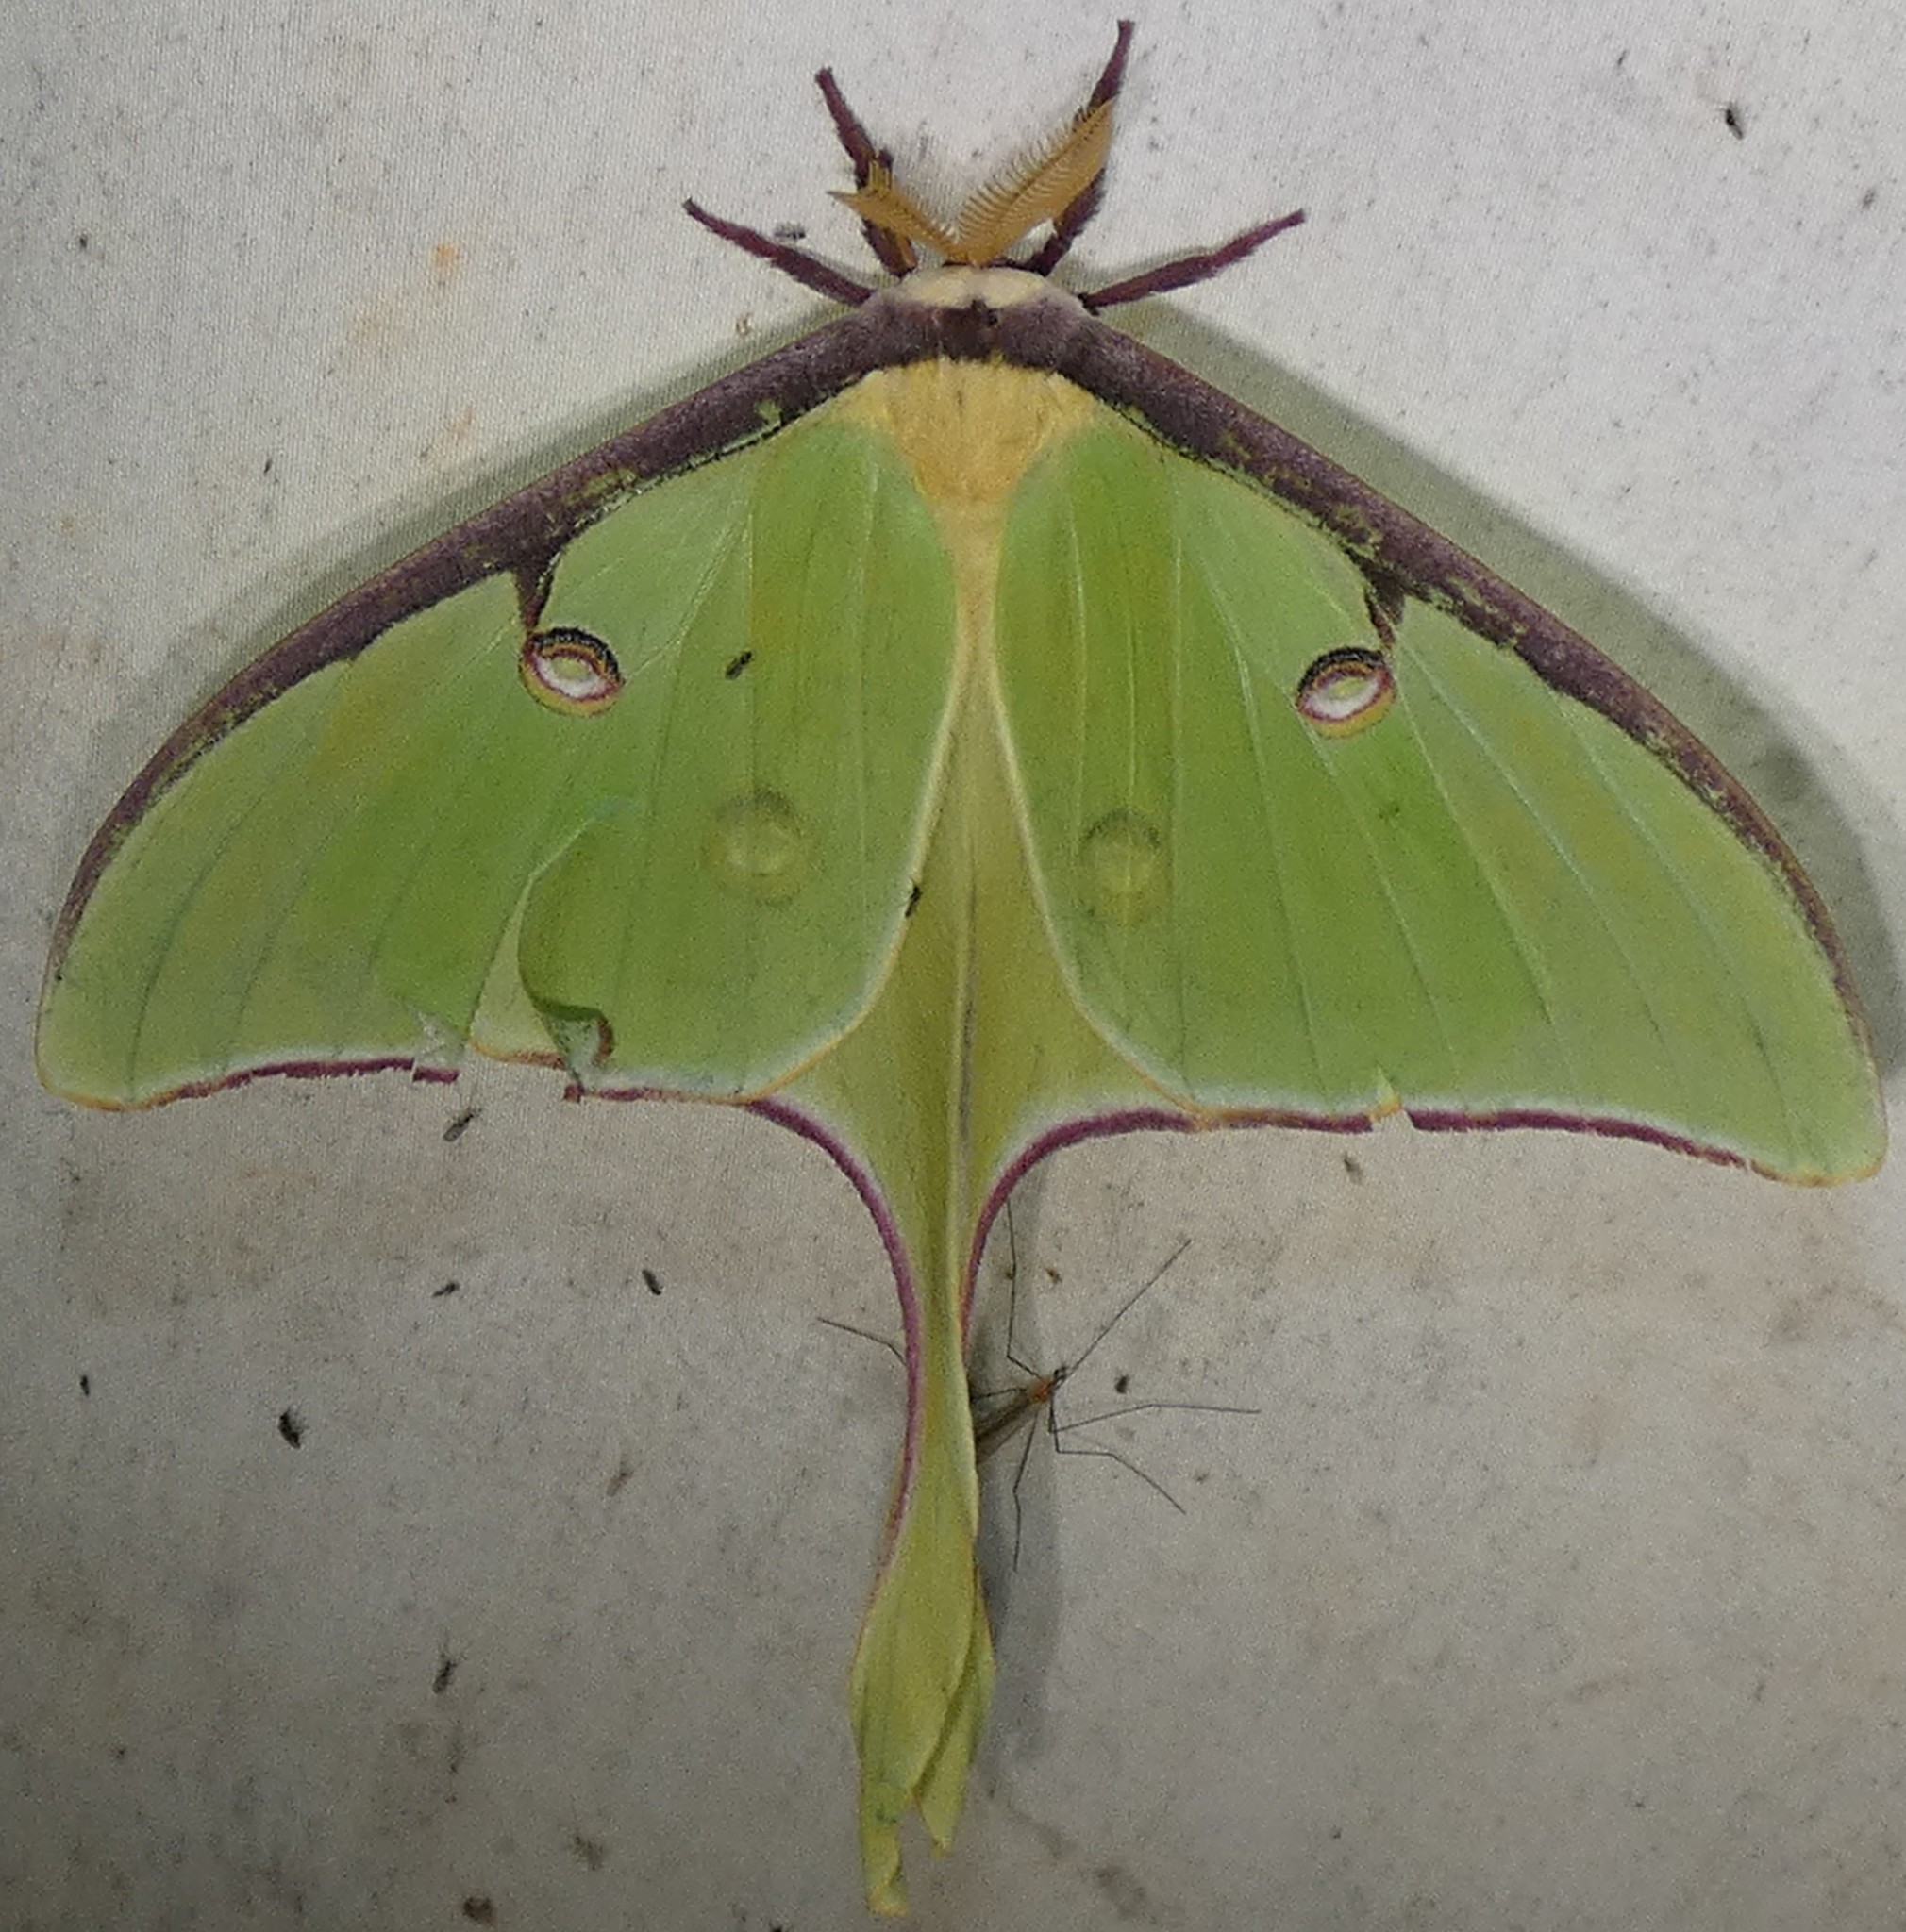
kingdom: Animalia
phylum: Arthropoda
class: Insecta
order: Lepidoptera
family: Saturniidae
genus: Actias
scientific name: Actias luna
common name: Luna moth
